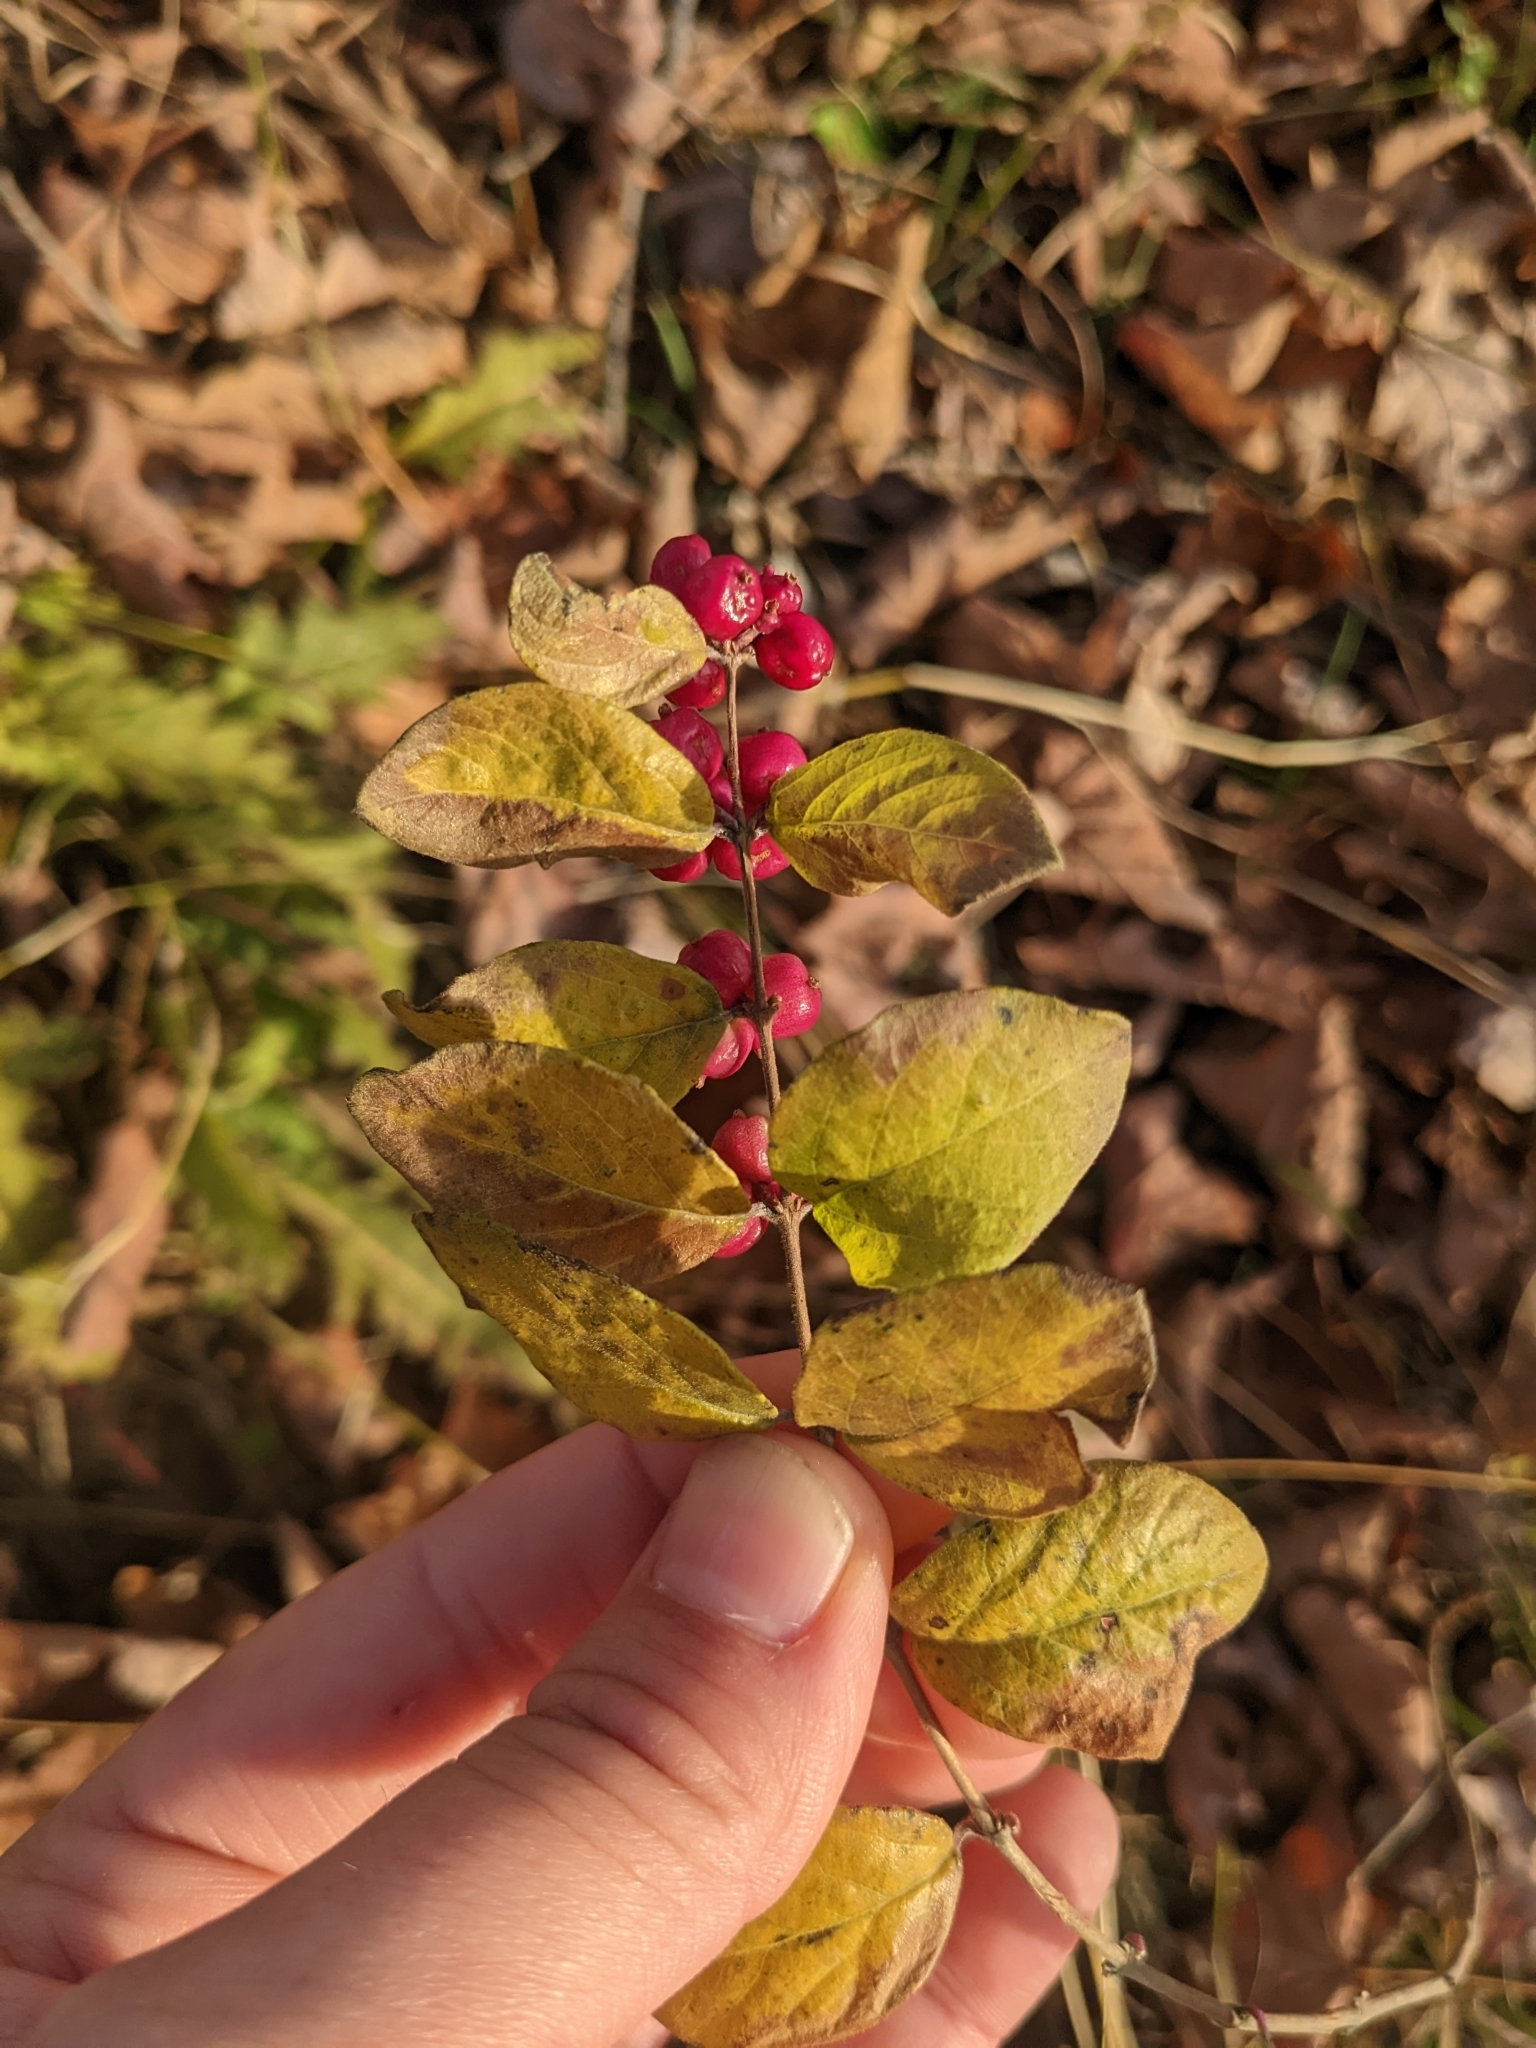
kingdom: Plantae
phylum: Tracheophyta
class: Magnoliopsida
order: Dipsacales
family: Caprifoliaceae
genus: Symphoricarpos
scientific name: Symphoricarpos orbiculatus
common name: Coralberry
